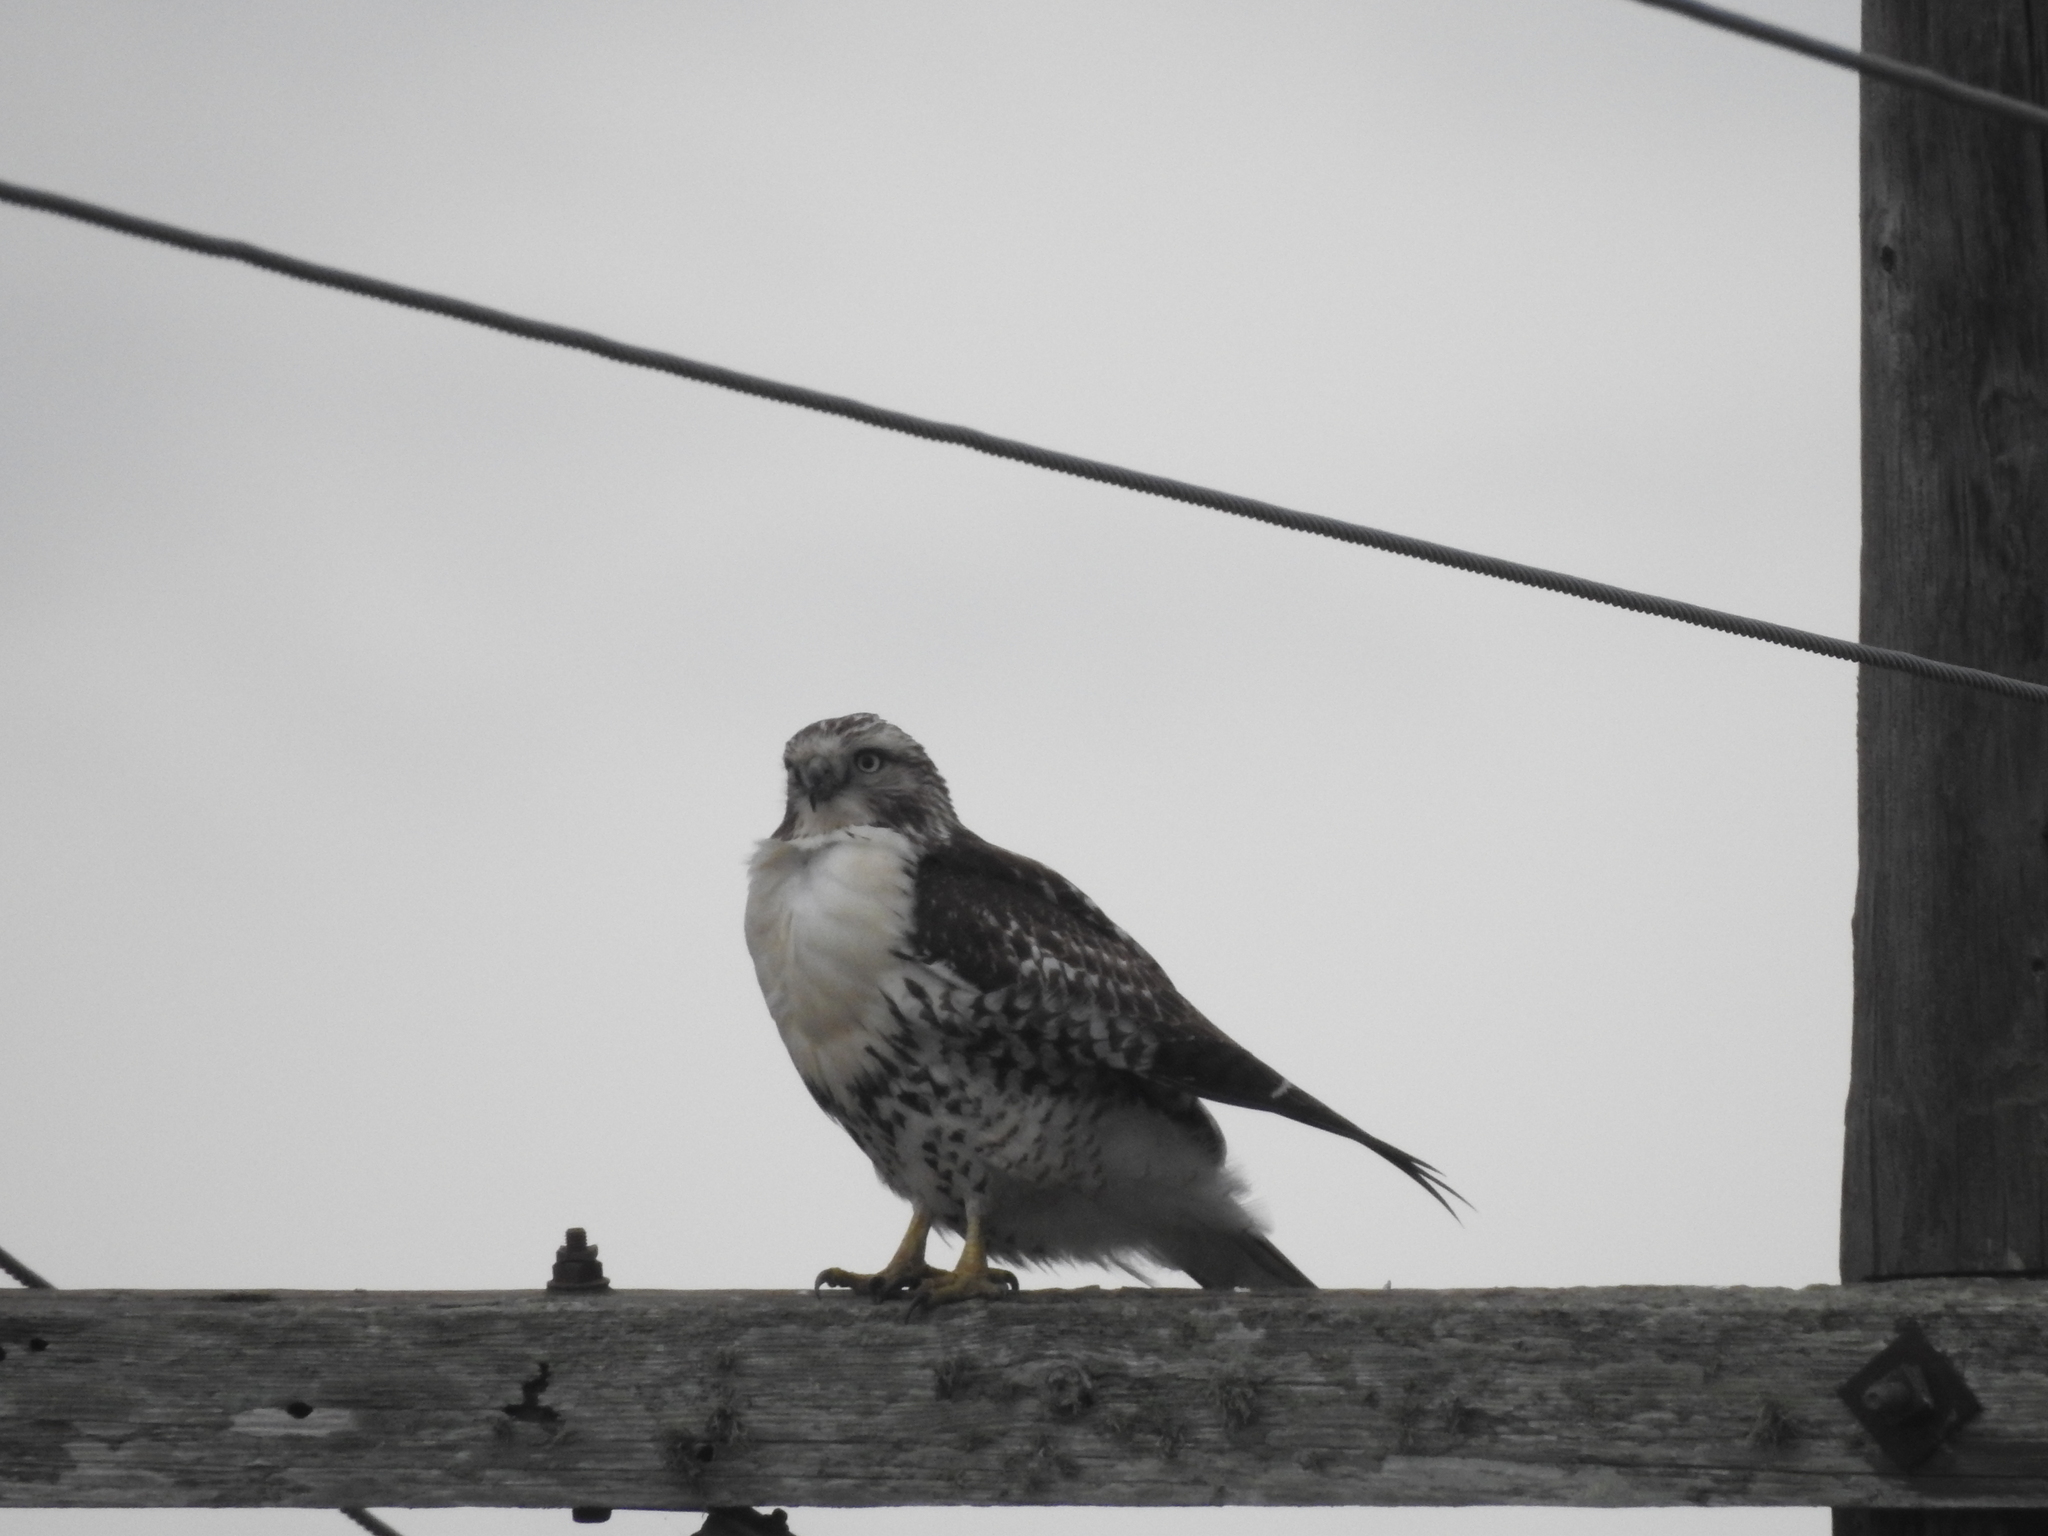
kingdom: Animalia
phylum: Chordata
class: Aves
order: Accipitriformes
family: Accipitridae
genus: Buteo
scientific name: Buteo jamaicensis
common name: Red-tailed hawk
